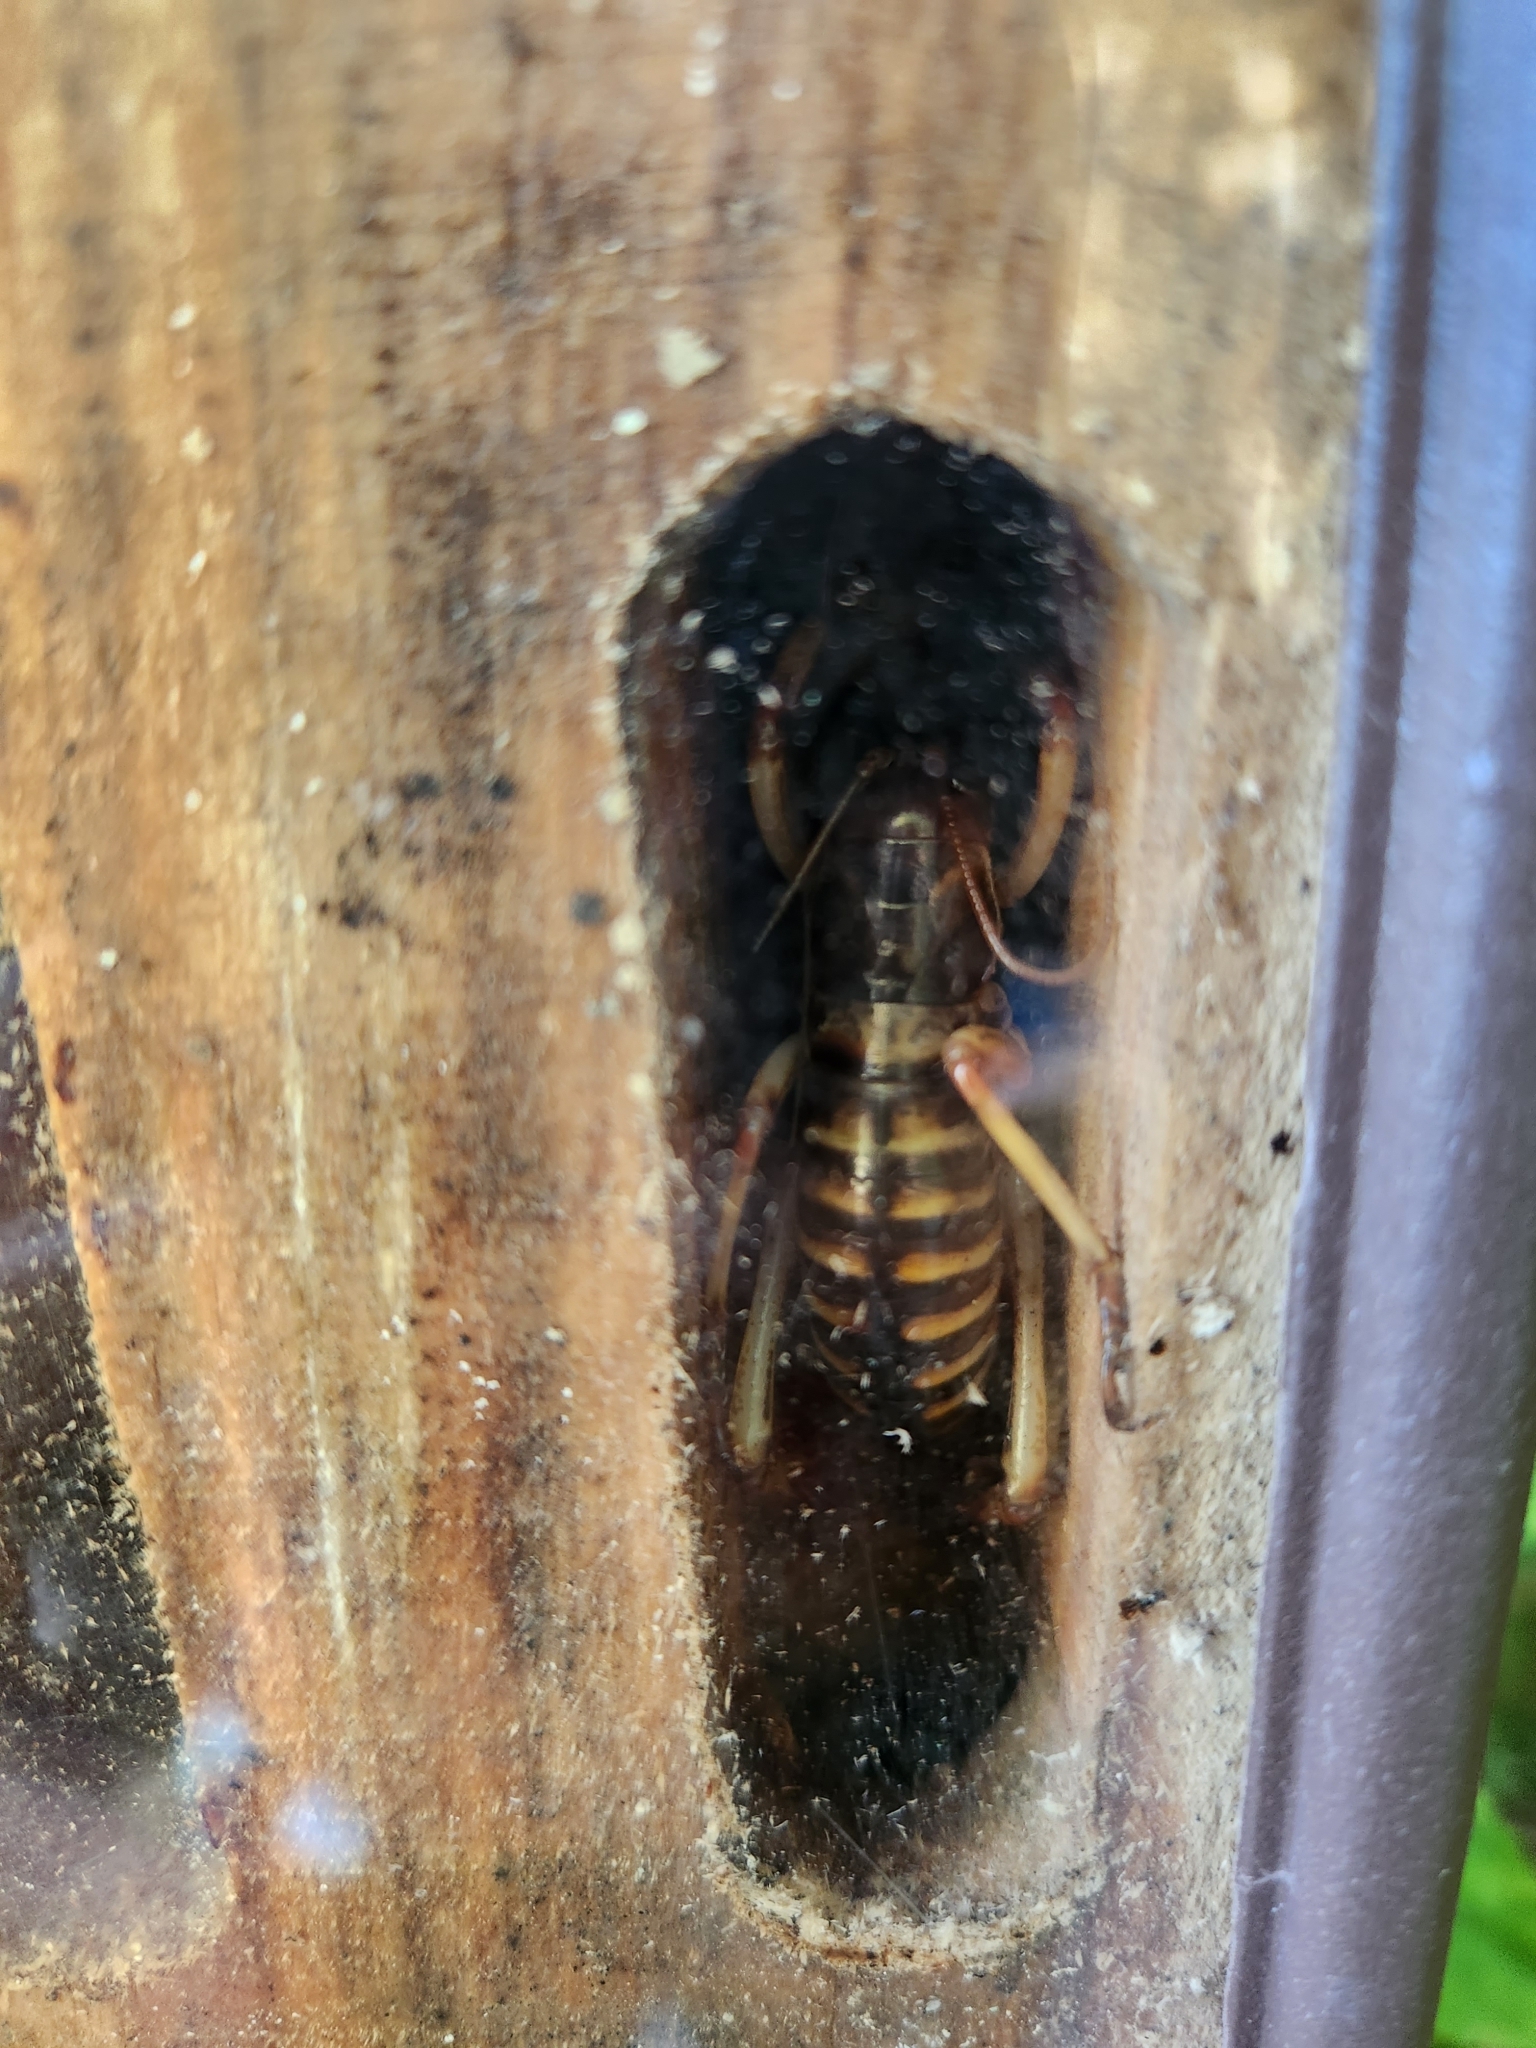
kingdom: Animalia
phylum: Arthropoda
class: Insecta
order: Orthoptera
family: Anostostomatidae
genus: Hemideina
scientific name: Hemideina crassidens
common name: Wellington tree weta
